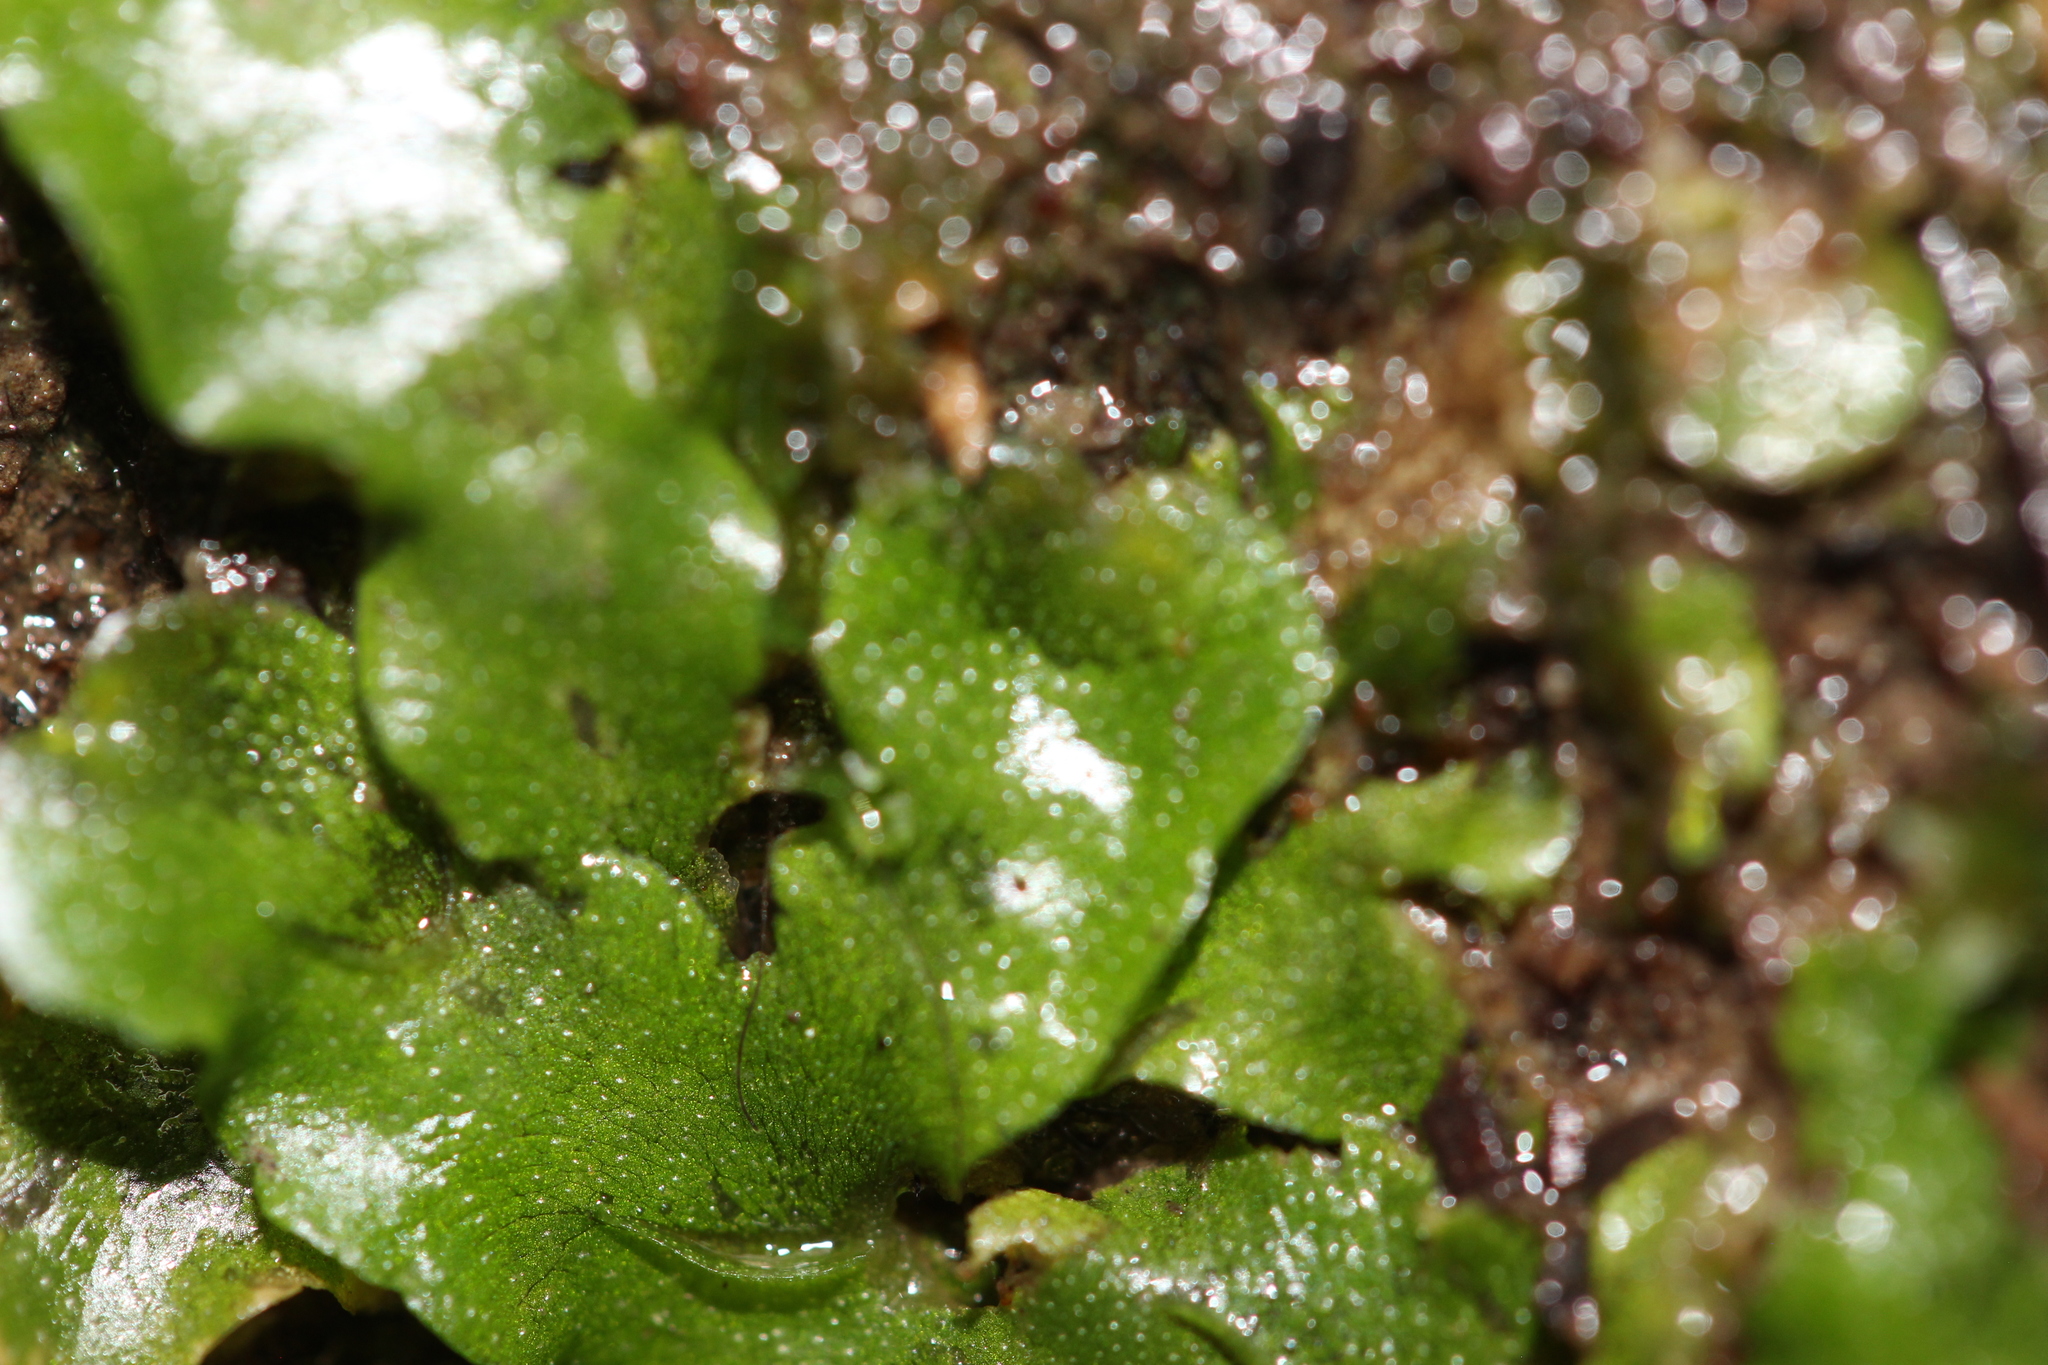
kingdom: Plantae
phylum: Marchantiophyta
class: Marchantiopsida
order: Lunulariales
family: Lunulariaceae
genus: Lunularia
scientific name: Lunularia cruciata
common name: Crescent-cup liverwort
